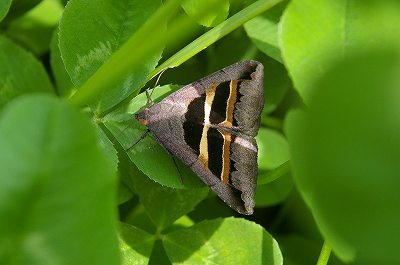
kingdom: Animalia
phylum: Arthropoda
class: Insecta
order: Lepidoptera
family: Erebidae
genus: Grammodes
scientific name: Grammodes geometrica
